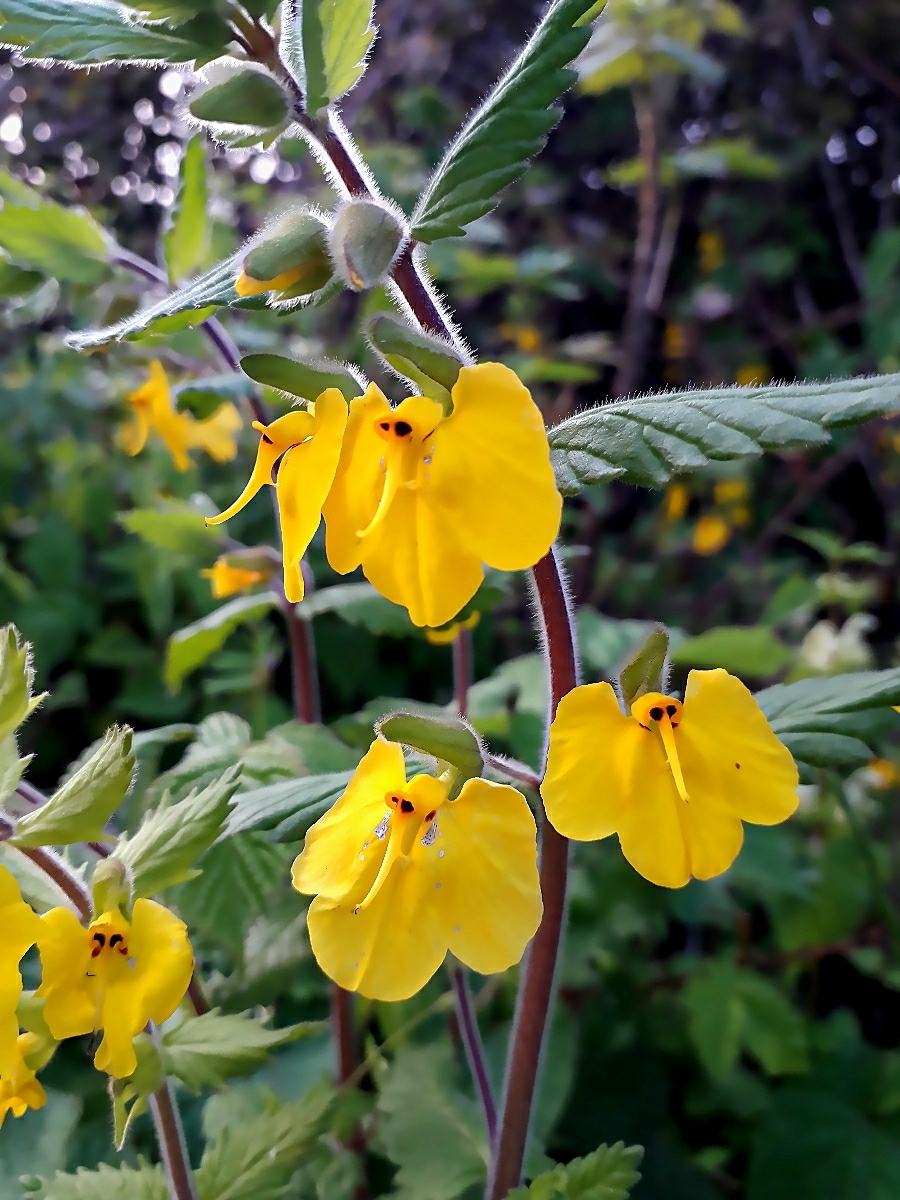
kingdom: Plantae
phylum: Tracheophyta
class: Magnoliopsida
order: Lamiales
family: Orobanchaceae
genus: Rhynchocorys
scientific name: Rhynchocorys elephas
